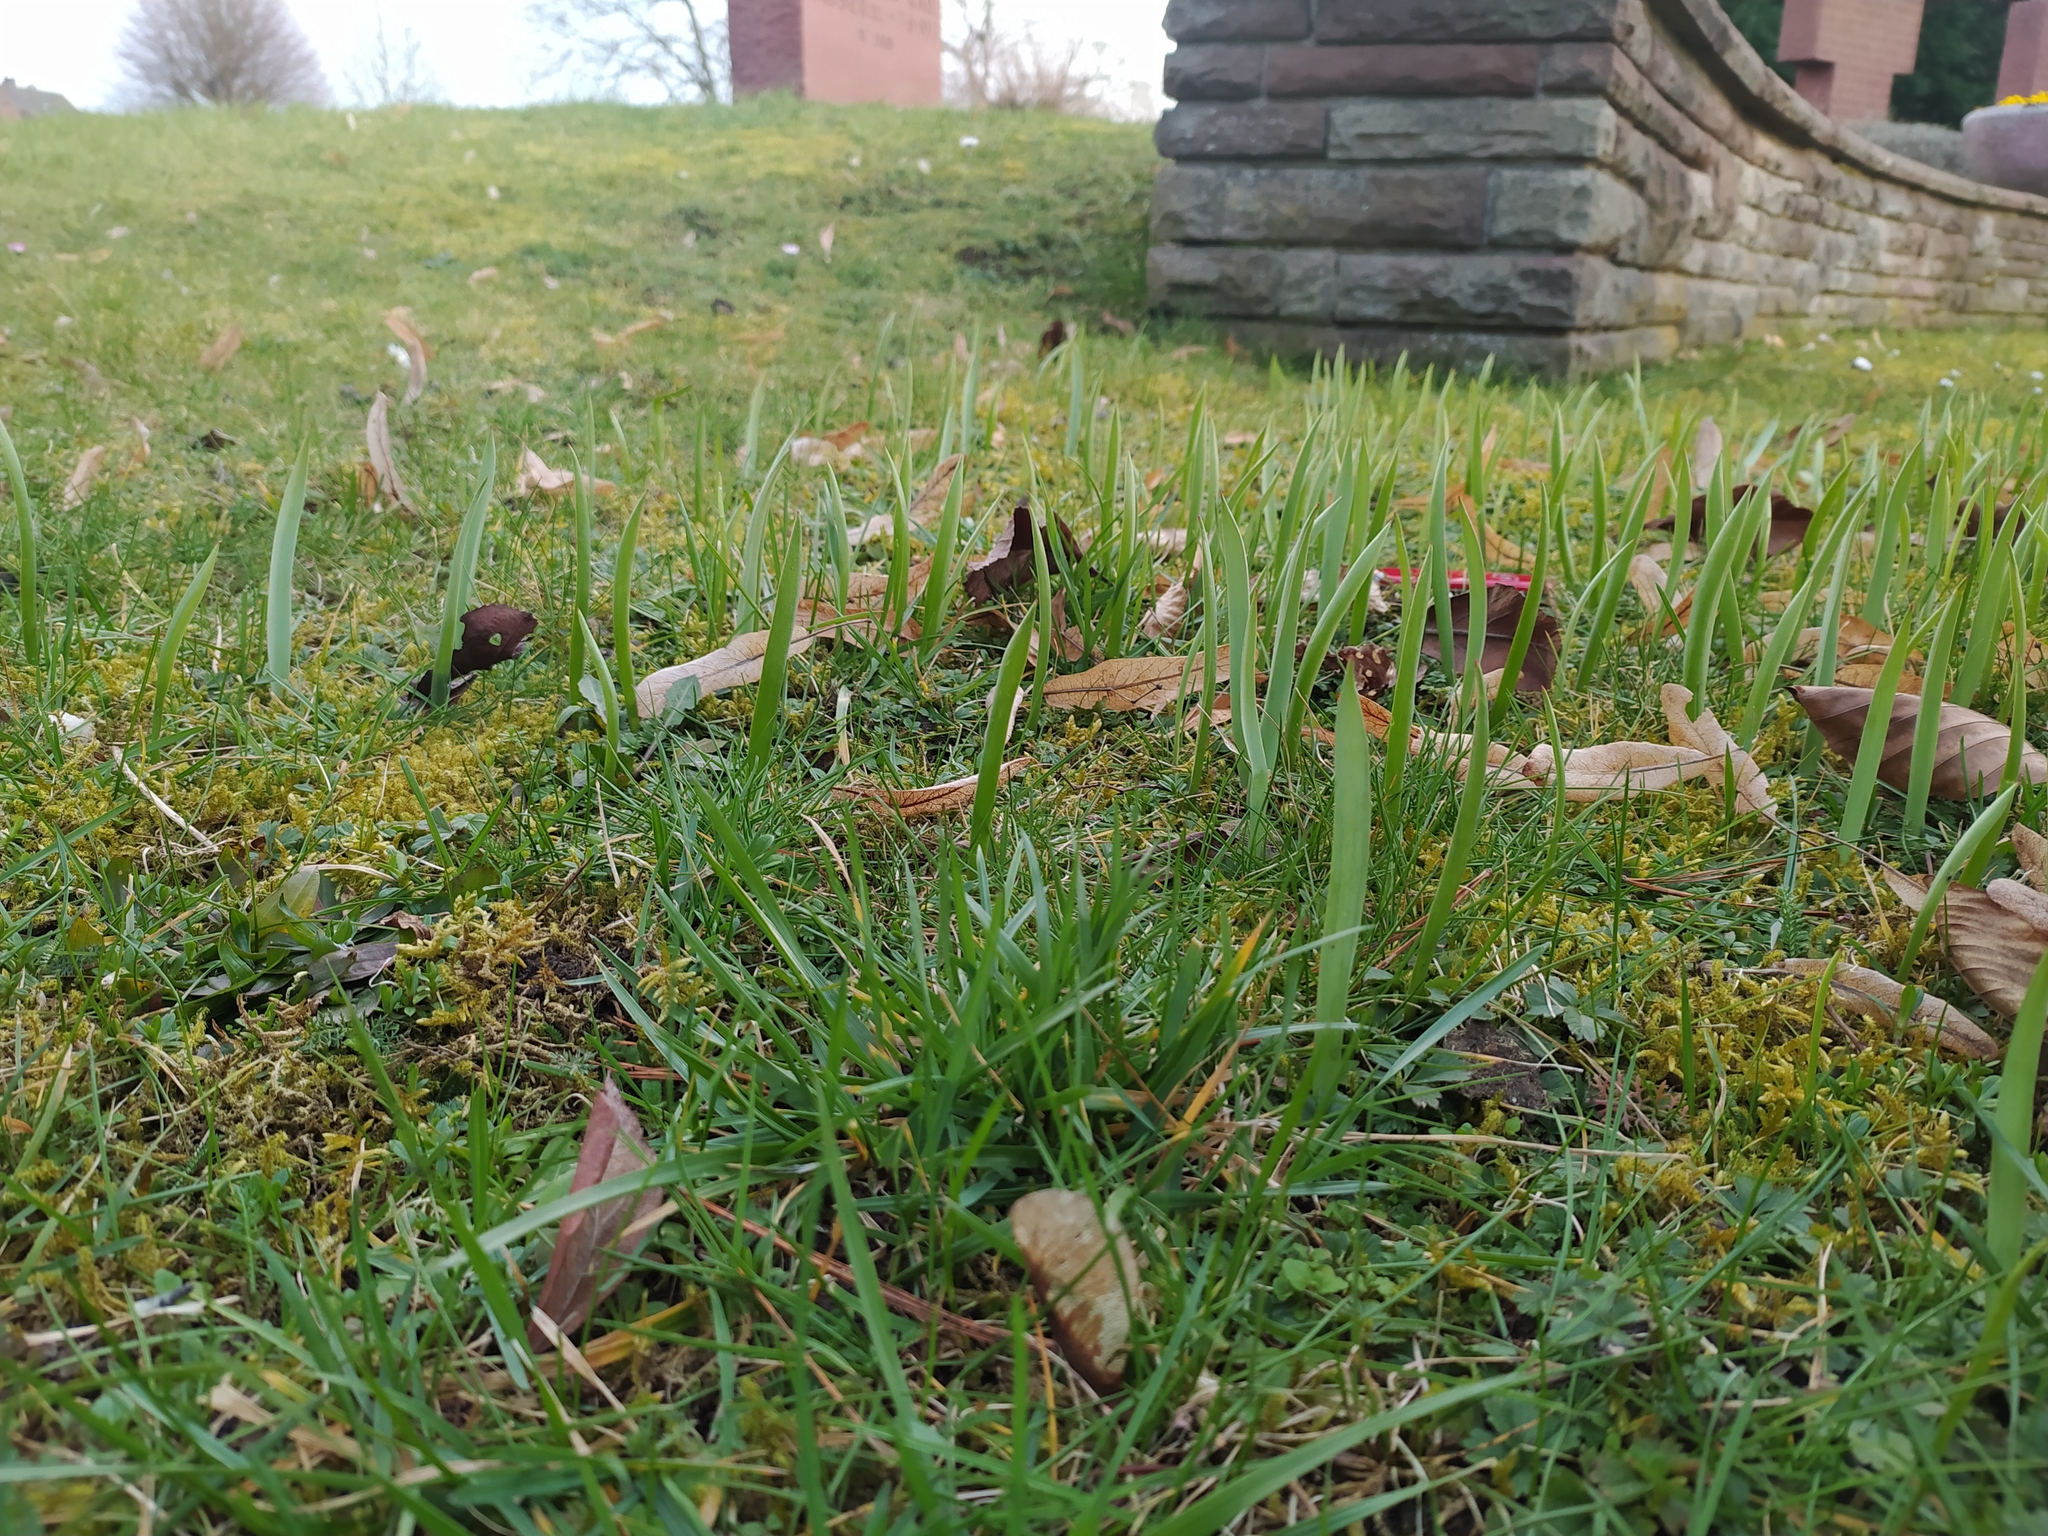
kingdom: Plantae
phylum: Tracheophyta
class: Liliopsida
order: Liliales
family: Liliaceae
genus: Tulipa
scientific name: Tulipa sylvestris
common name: Wild tulip
